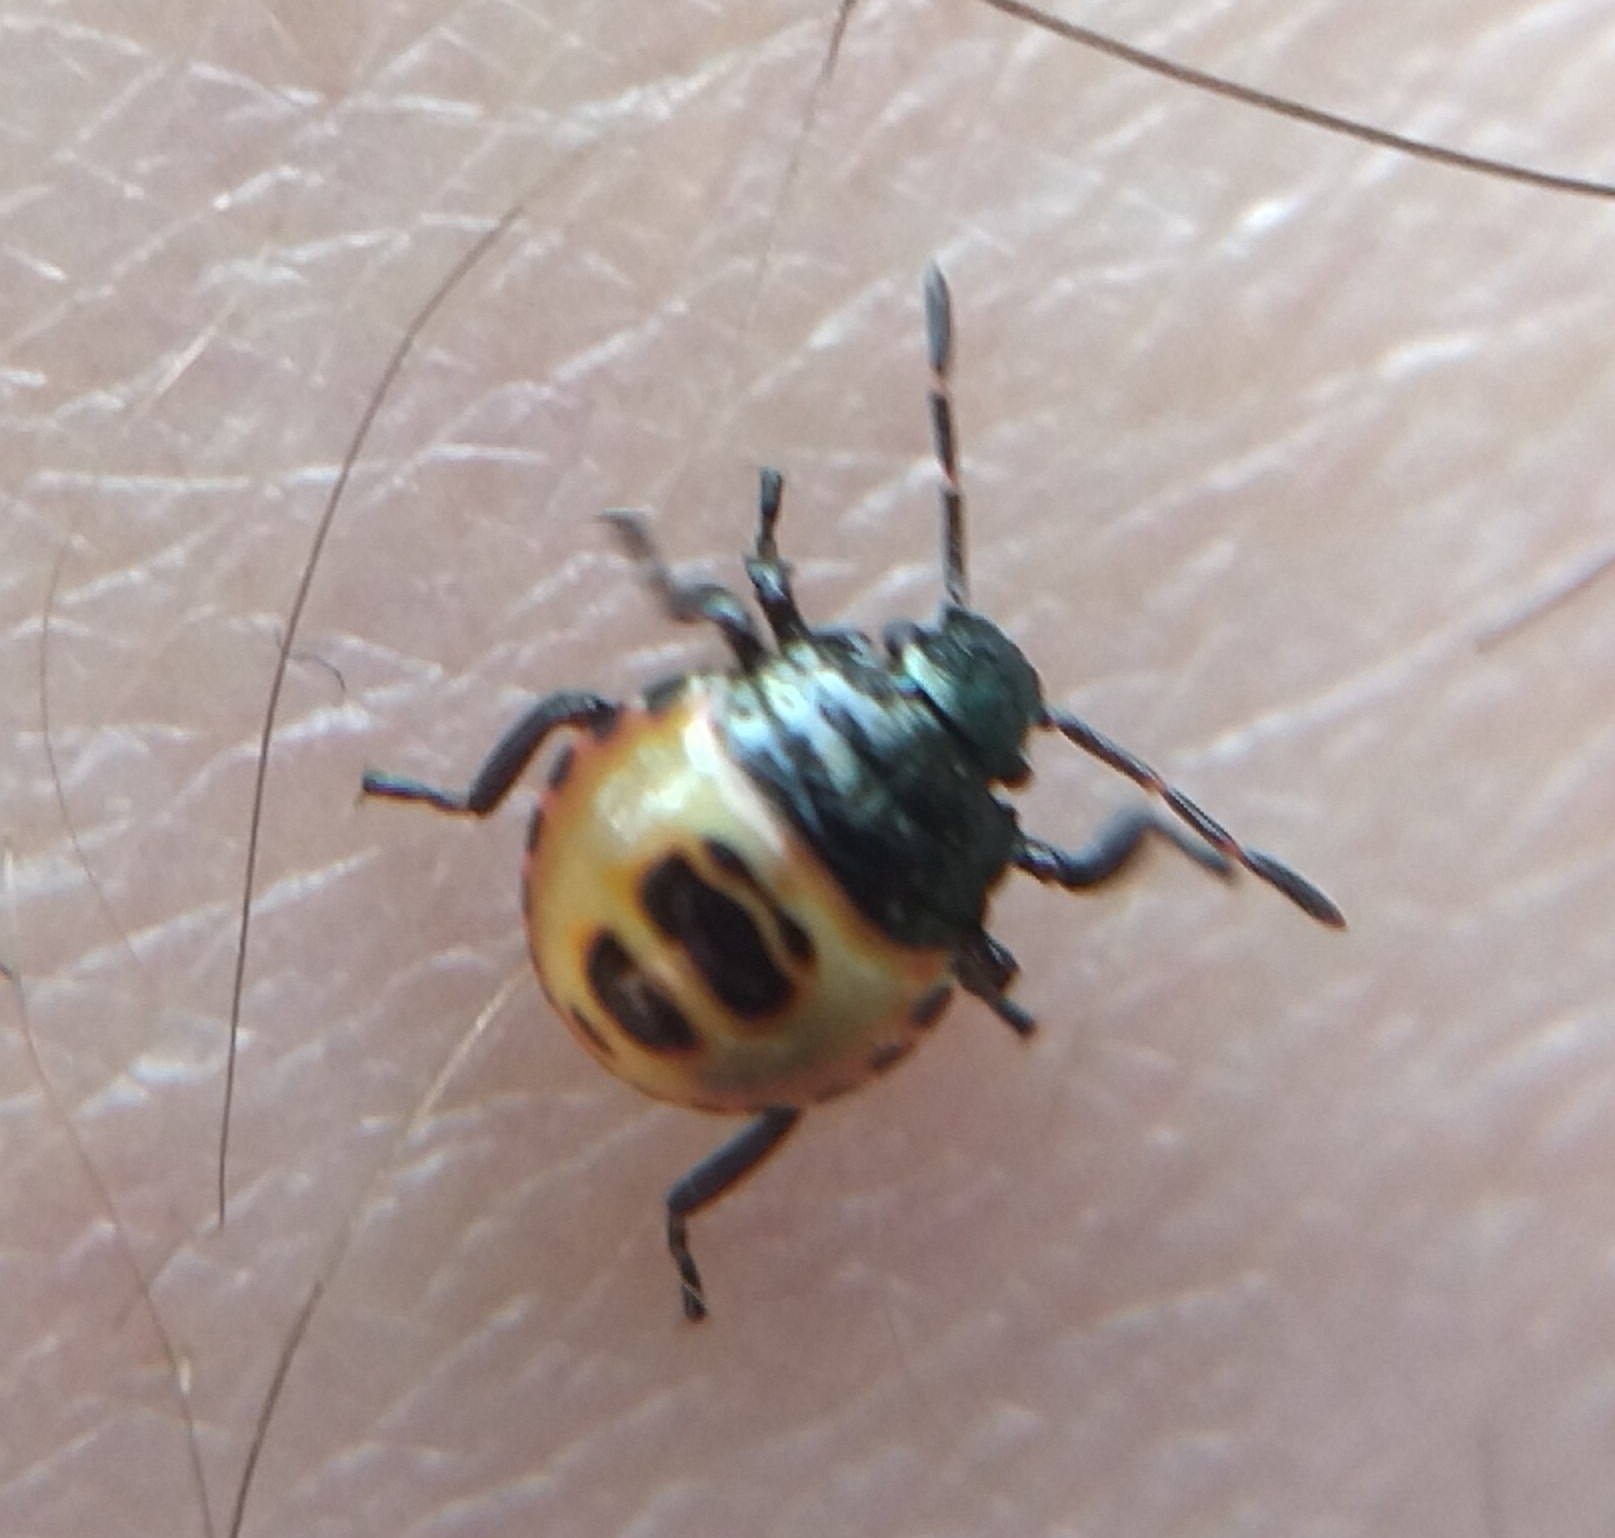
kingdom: Animalia
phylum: Arthropoda
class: Insecta
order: Hemiptera
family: Pentatomidae
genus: Troilus
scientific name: Troilus luridus
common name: Bronze shieldbug
